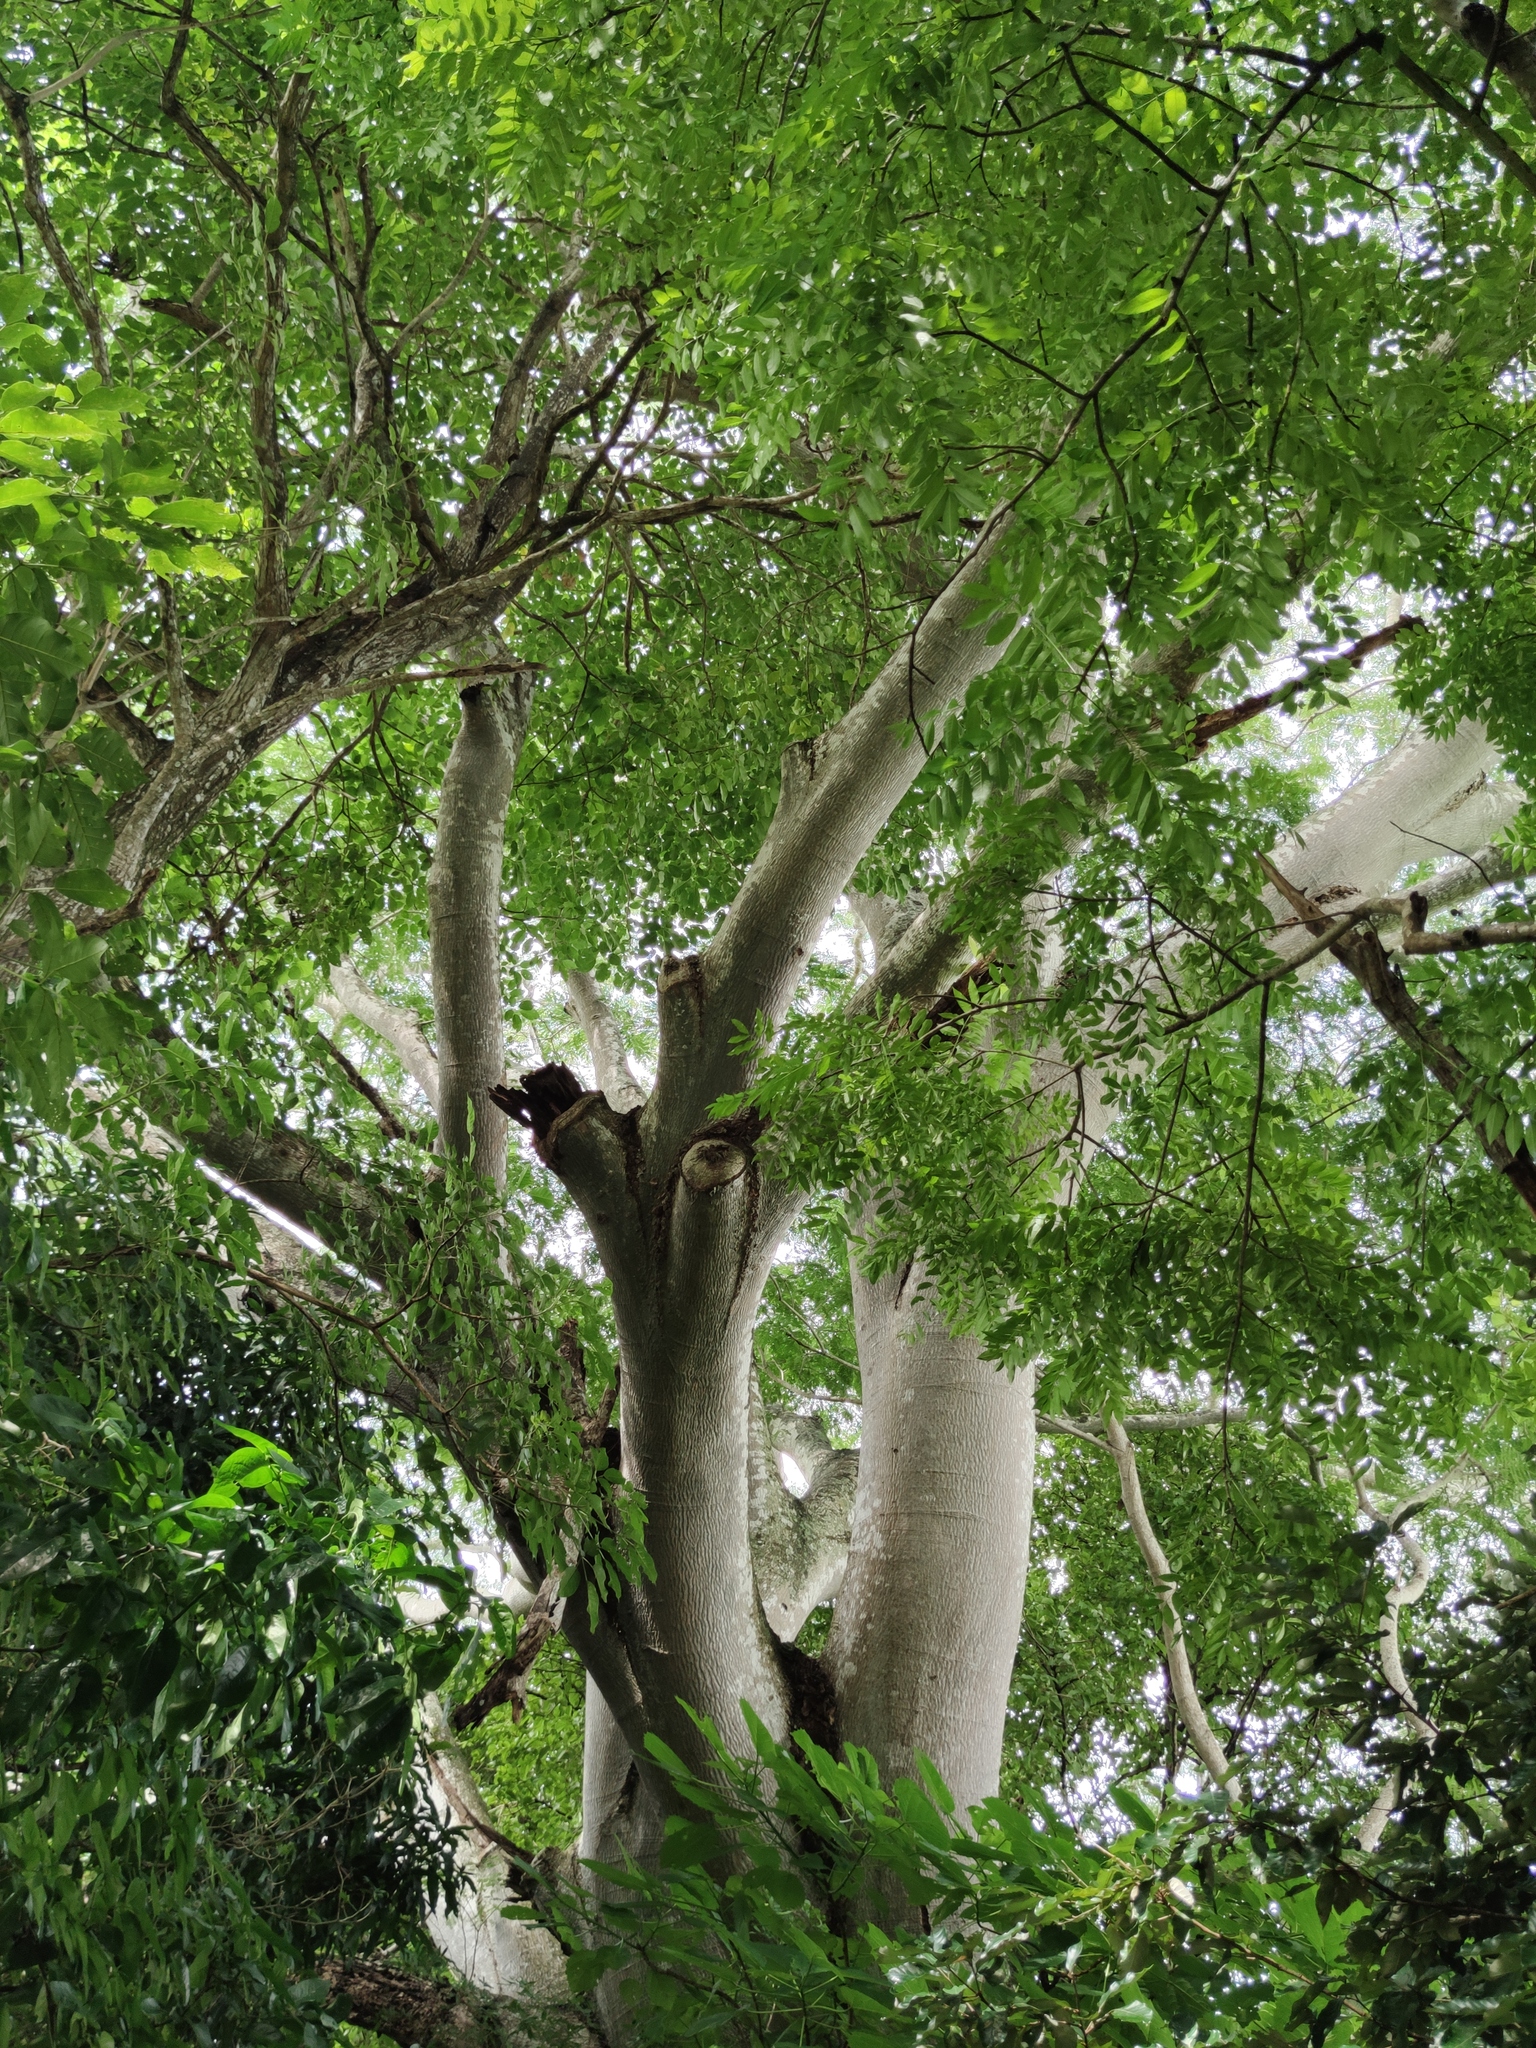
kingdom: Plantae
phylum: Tracheophyta
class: Magnoliopsida
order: Fabales
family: Fabaceae
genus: Enterolobium
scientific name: Enterolobium cyclocarpum
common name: Ear tree
